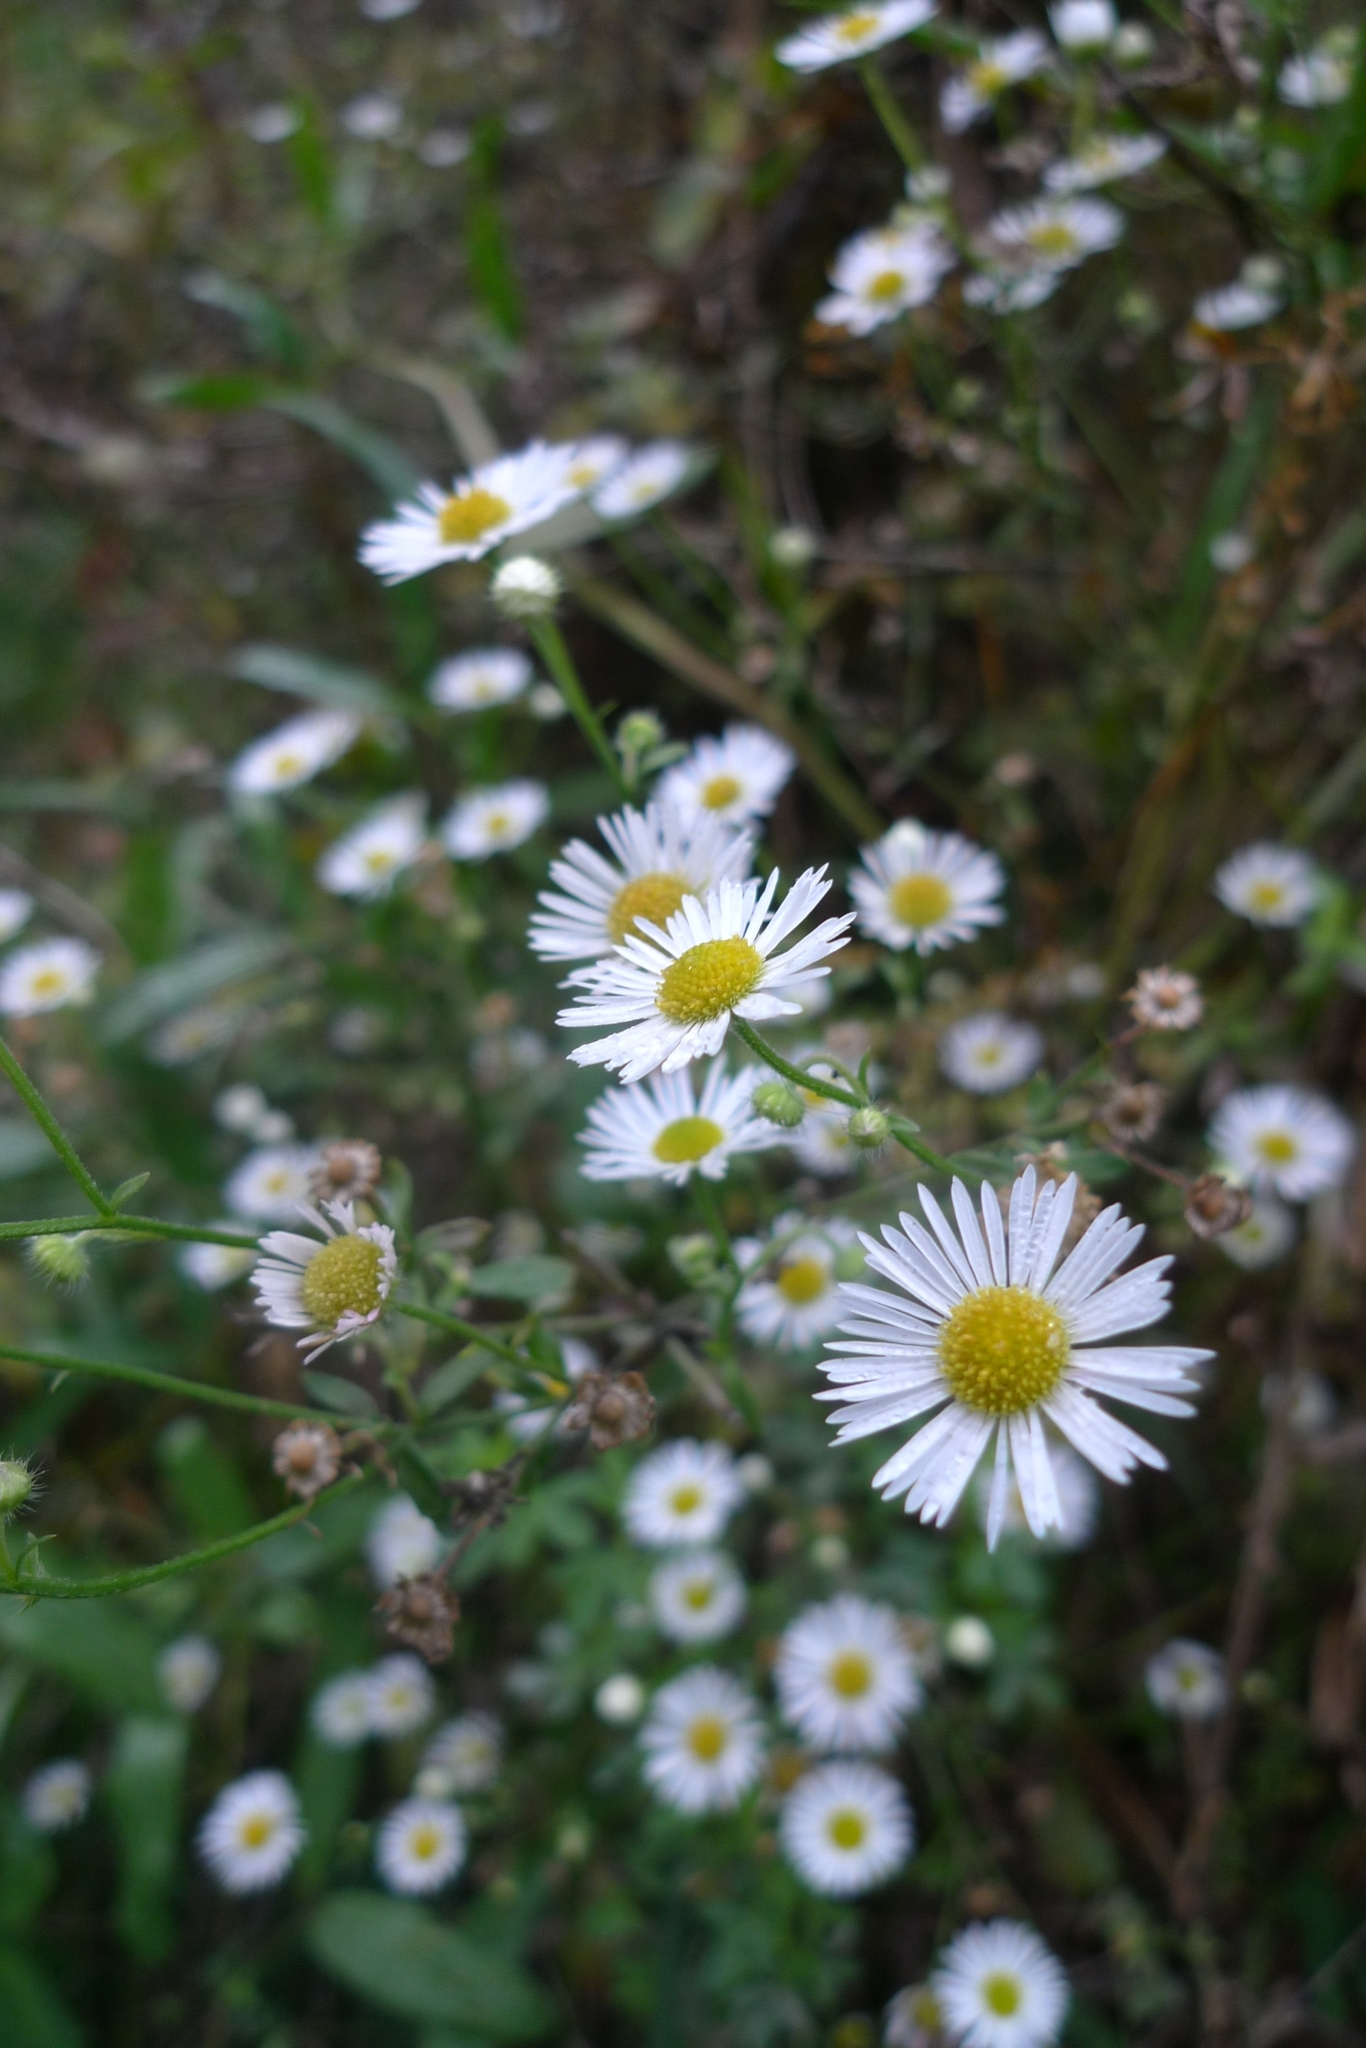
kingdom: Plantae
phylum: Tracheophyta
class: Magnoliopsida
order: Asterales
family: Asteraceae
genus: Erigeron
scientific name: Erigeron annuus
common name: Tall fleabane
